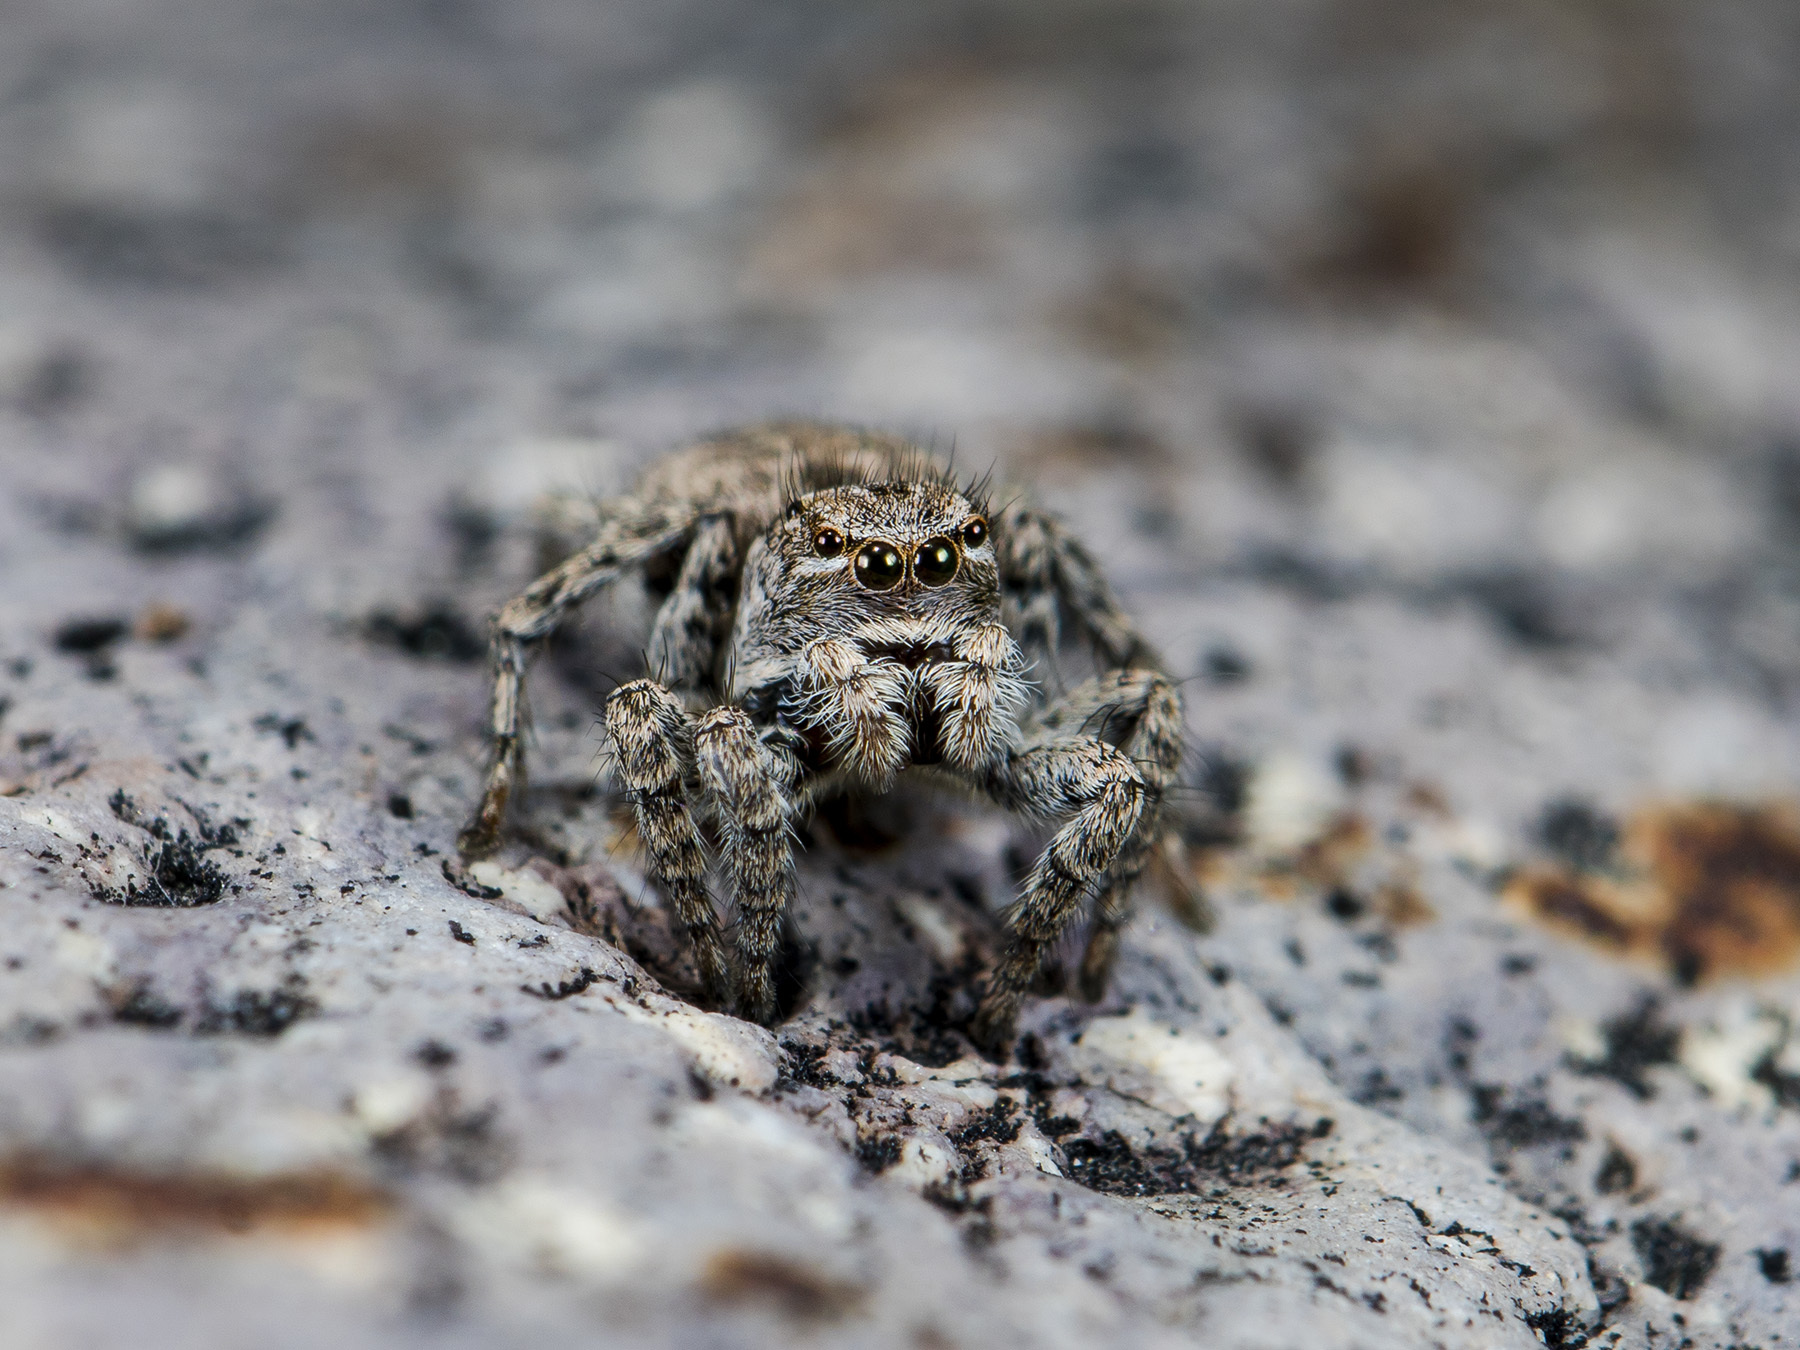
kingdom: Animalia
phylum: Arthropoda
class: Arachnida
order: Araneae
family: Salticidae
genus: Aelurillus
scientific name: Aelurillus v-insignitus
